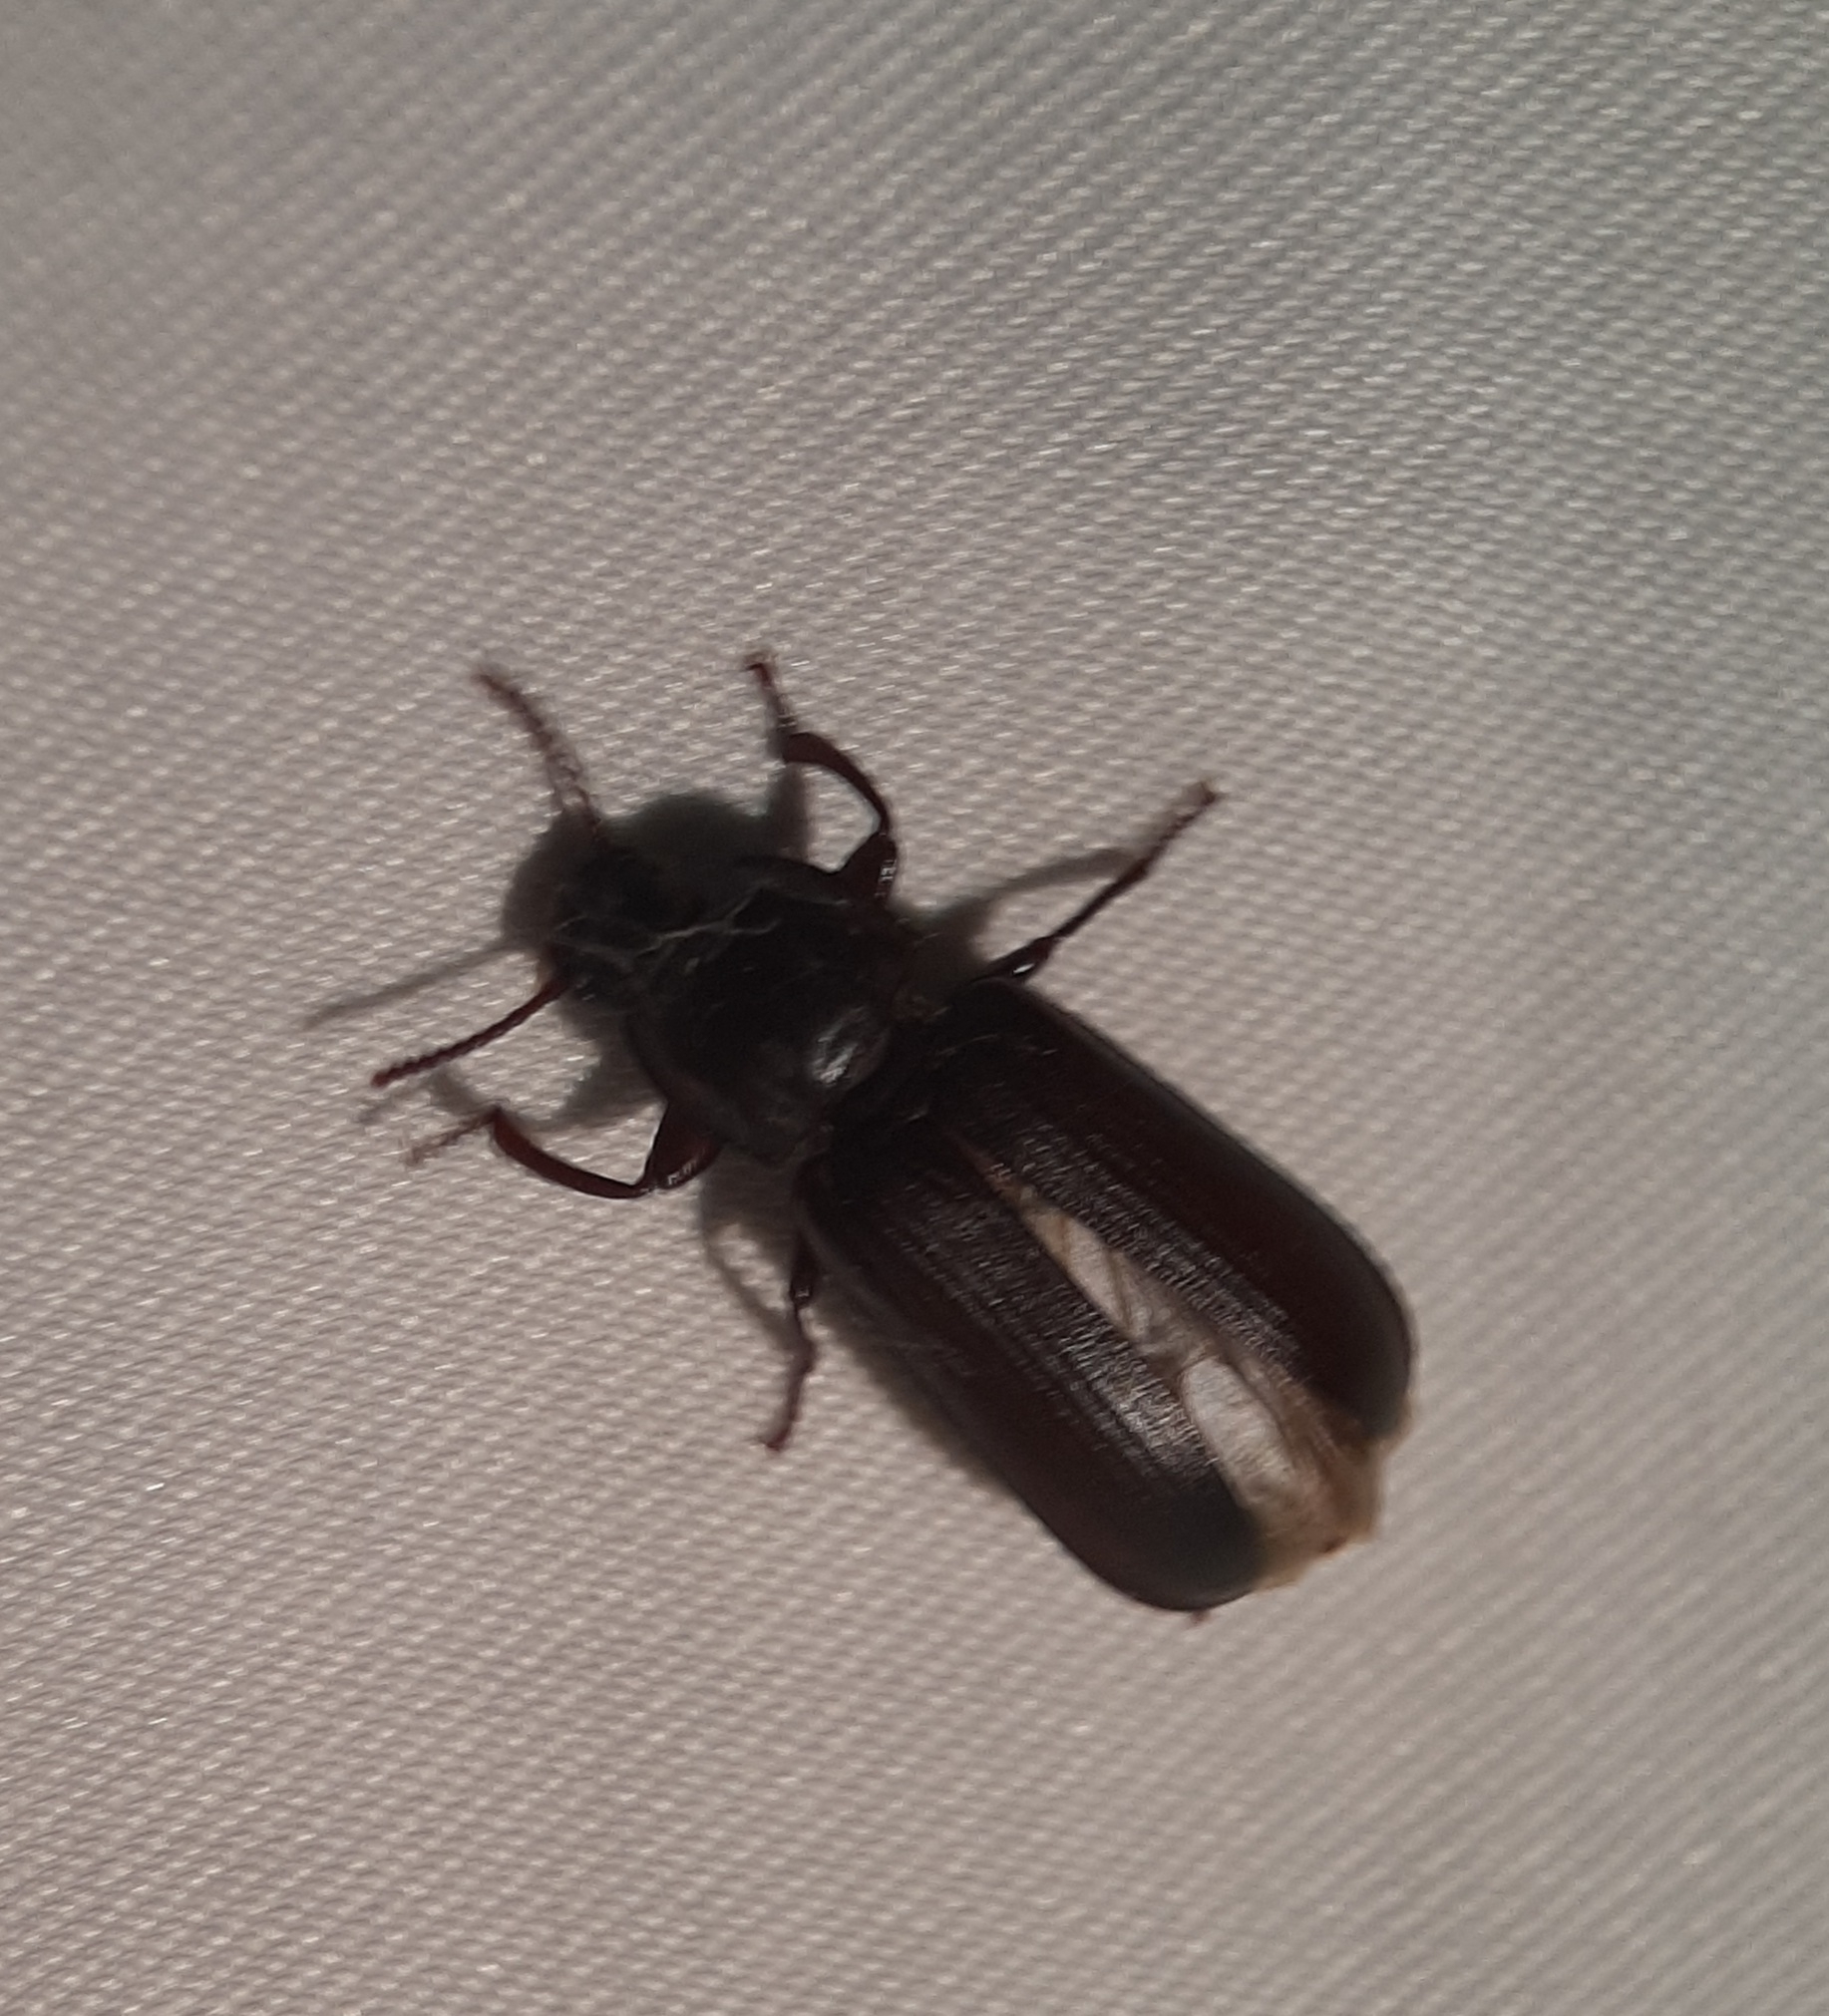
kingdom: Animalia
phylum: Arthropoda
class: Insecta
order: Coleoptera
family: Tenebrionidae
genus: Tenebrio
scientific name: Tenebrio molitor
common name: Hardback beetle
